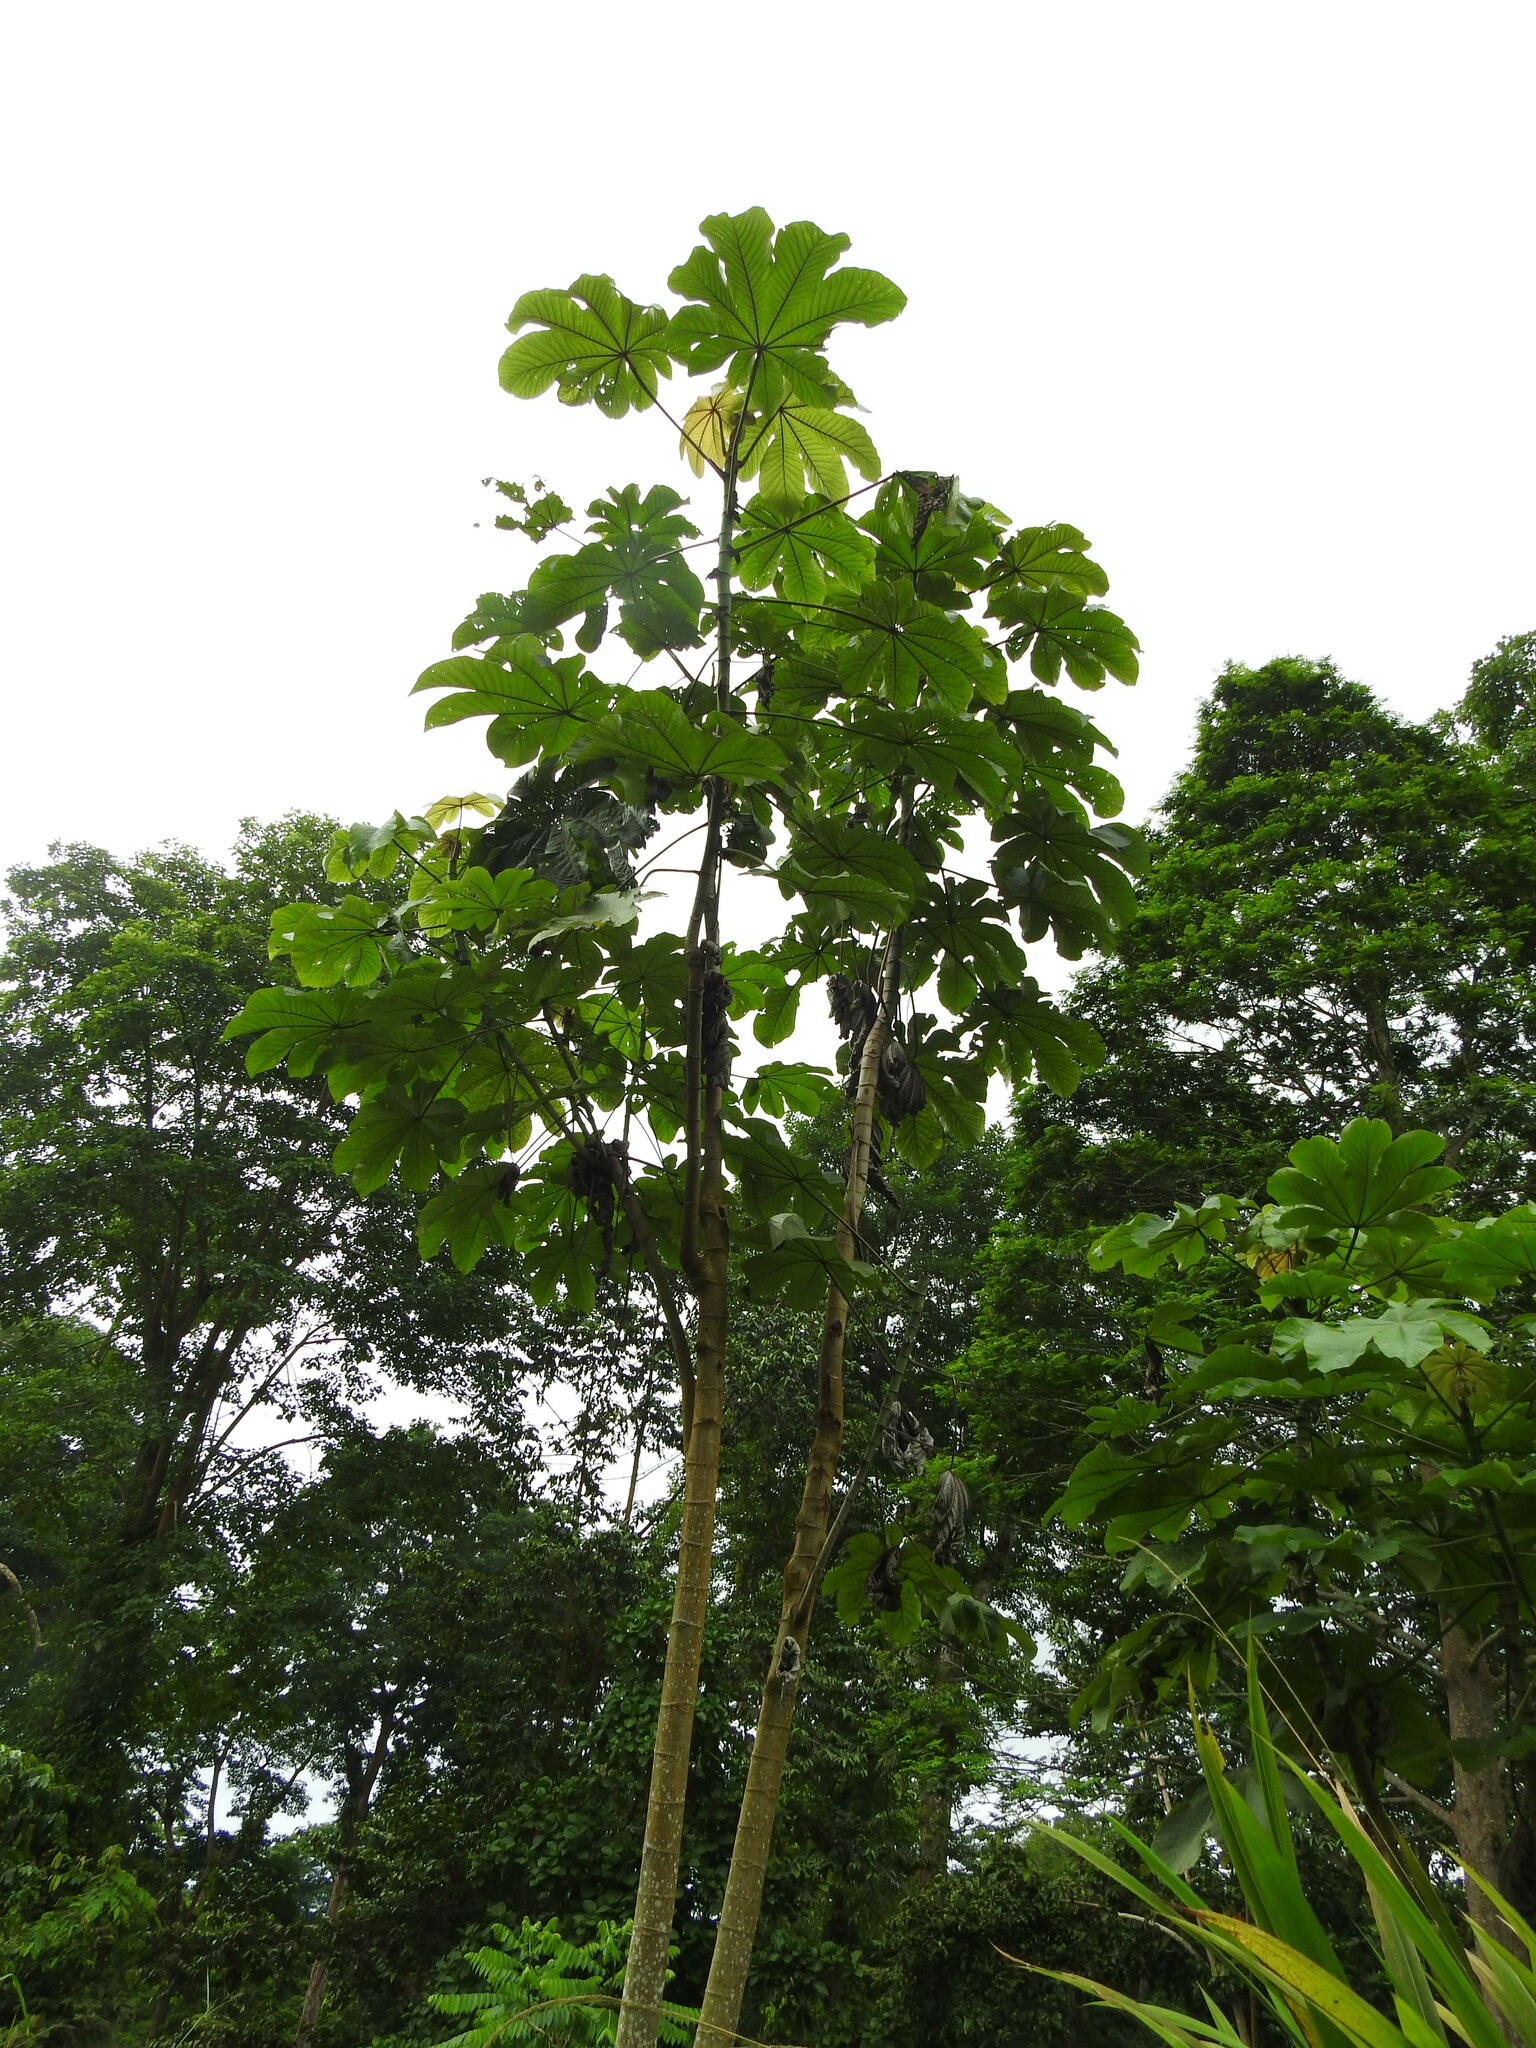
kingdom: Plantae
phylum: Tracheophyta
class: Magnoliopsida
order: Rosales
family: Urticaceae
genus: Cecropia
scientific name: Cecropia peltata
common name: Trumpet-tree
